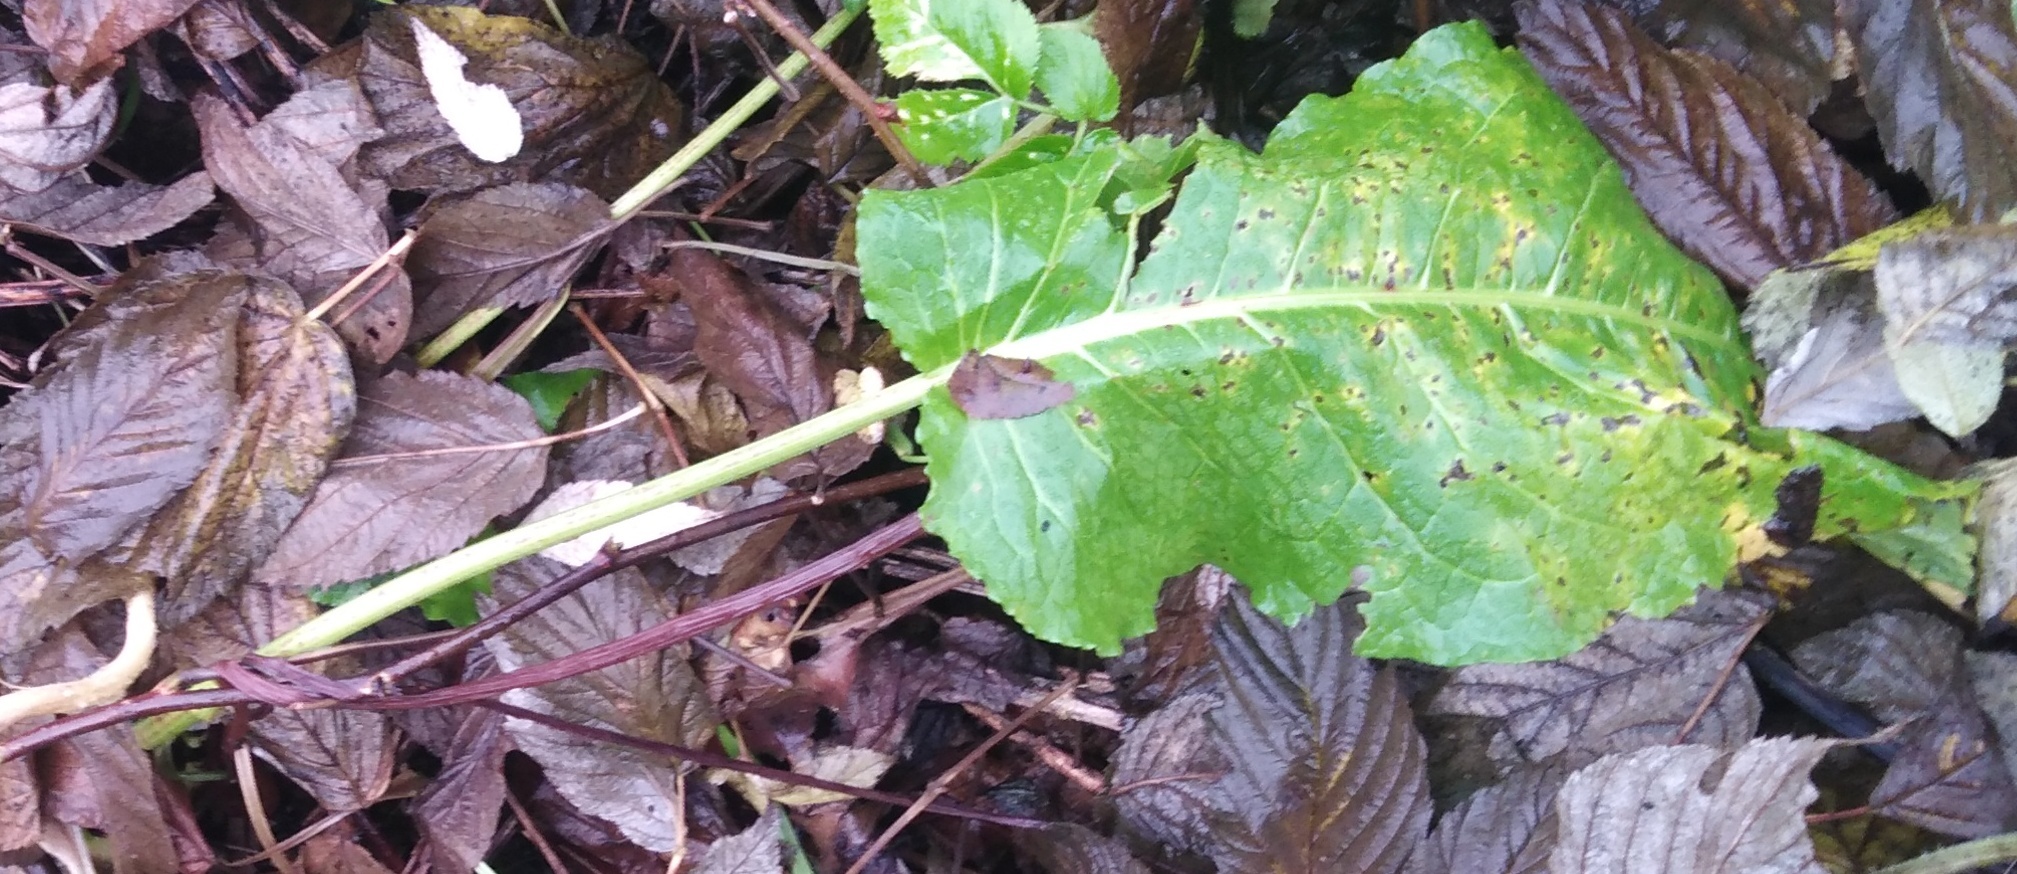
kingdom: Plantae
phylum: Tracheophyta
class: Magnoliopsida
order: Brassicales
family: Brassicaceae
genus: Armoracia
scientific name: Armoracia rusticana
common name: Horseradish
